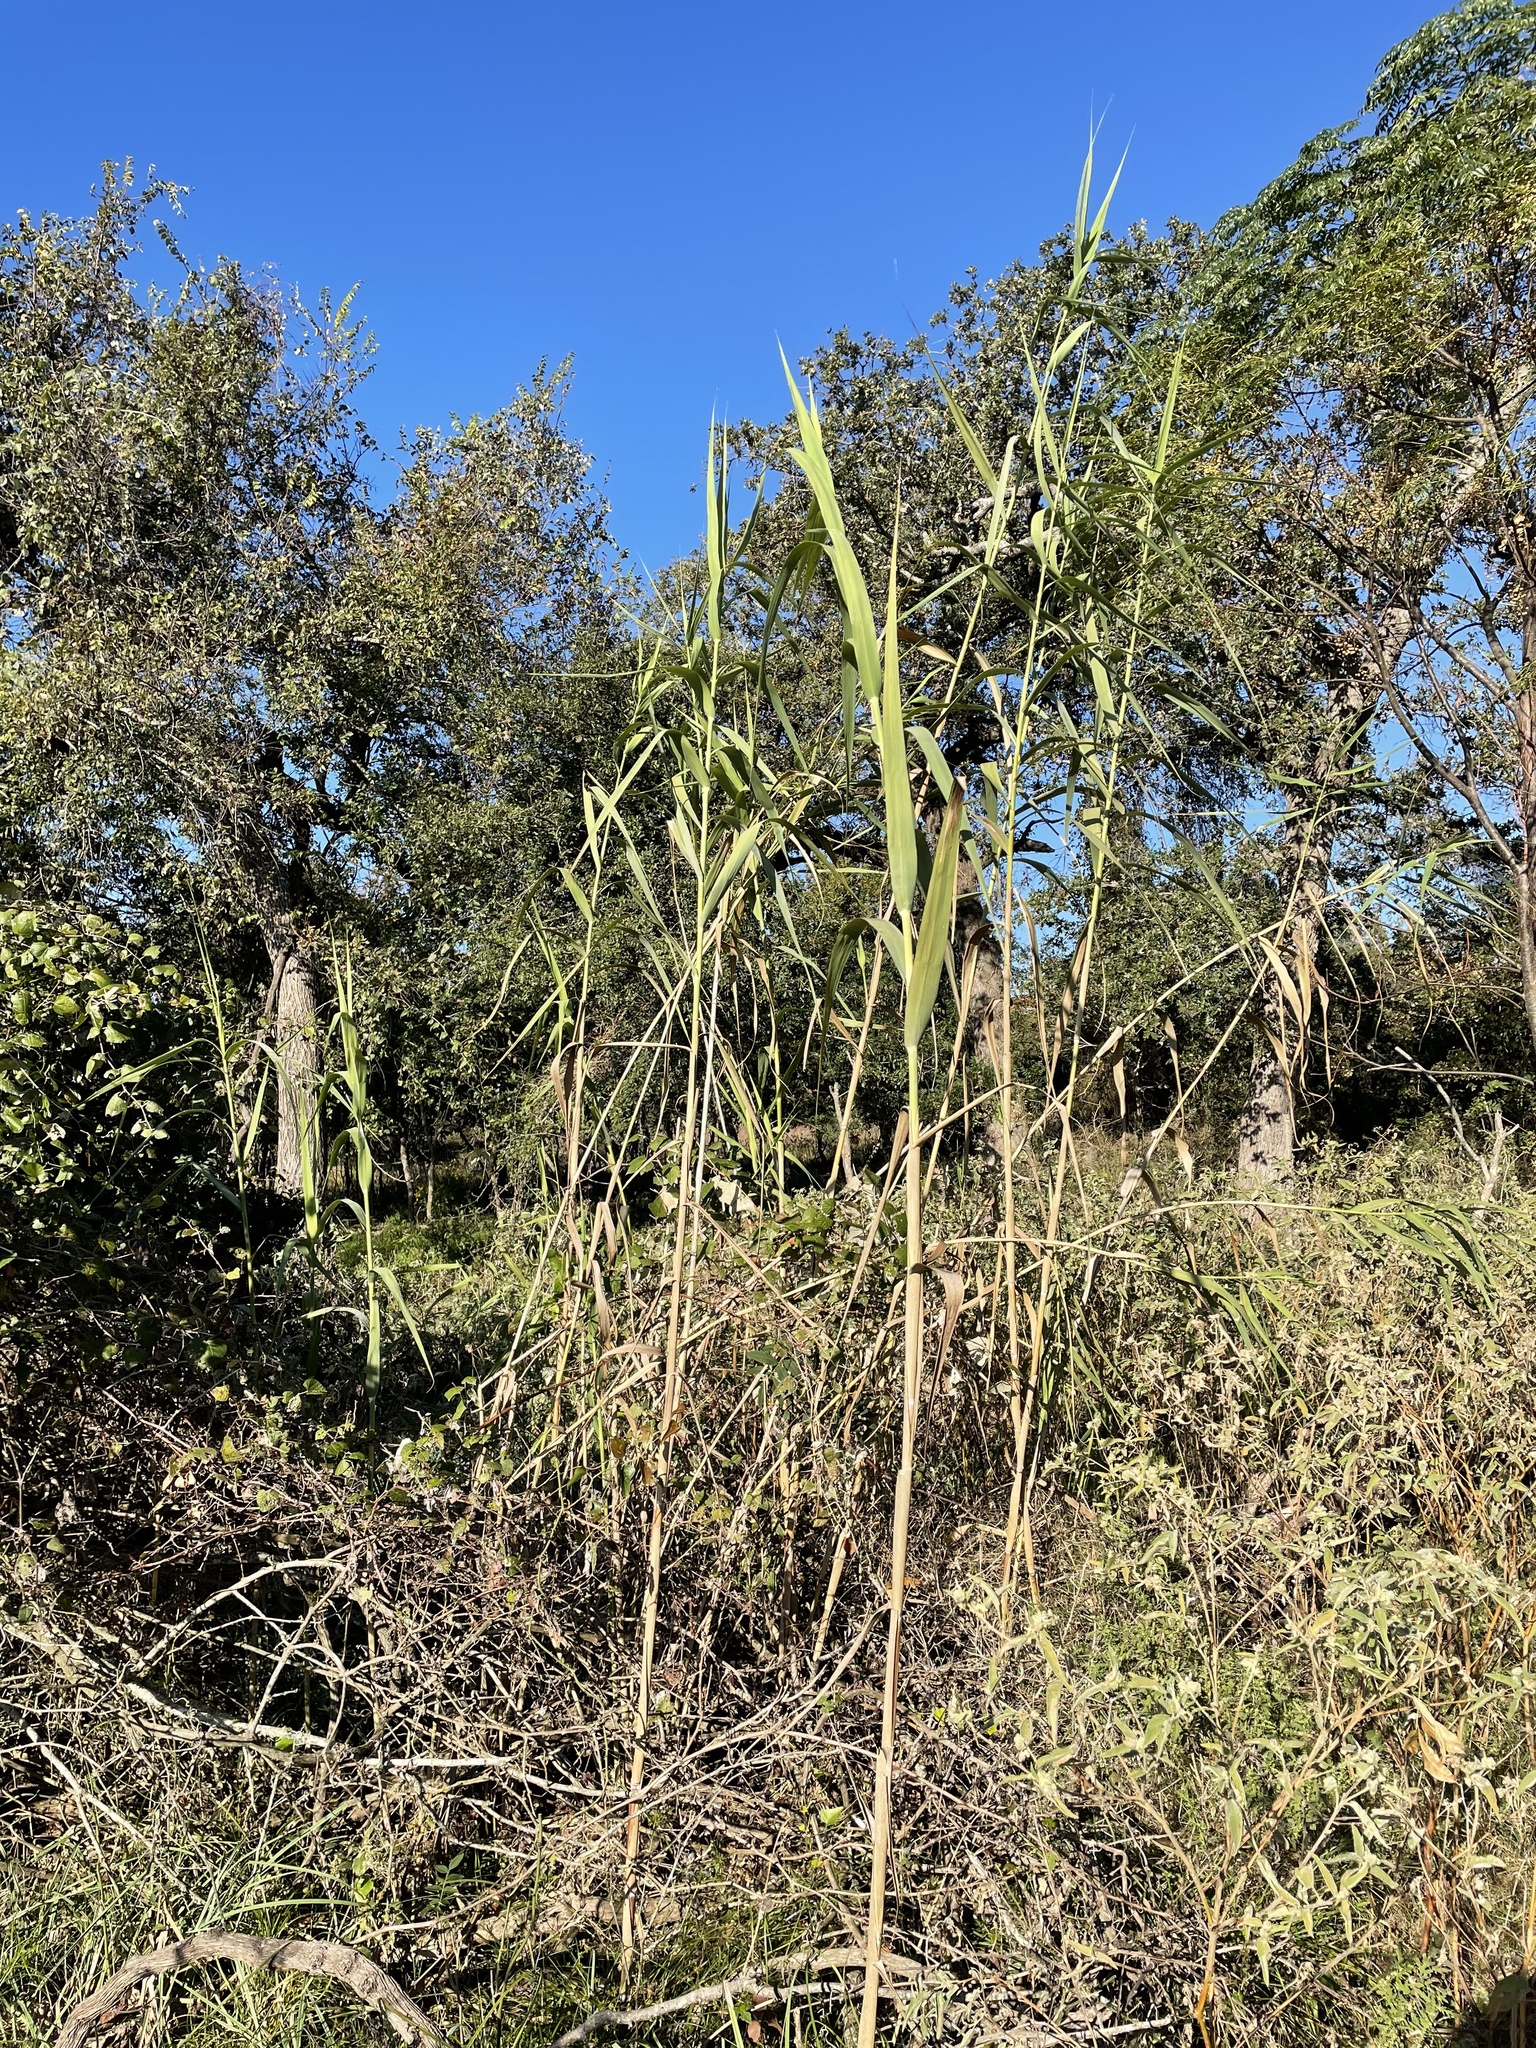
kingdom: Plantae
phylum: Tracheophyta
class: Liliopsida
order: Poales
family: Poaceae
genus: Phragmites
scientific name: Phragmites australis
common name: Common reed
